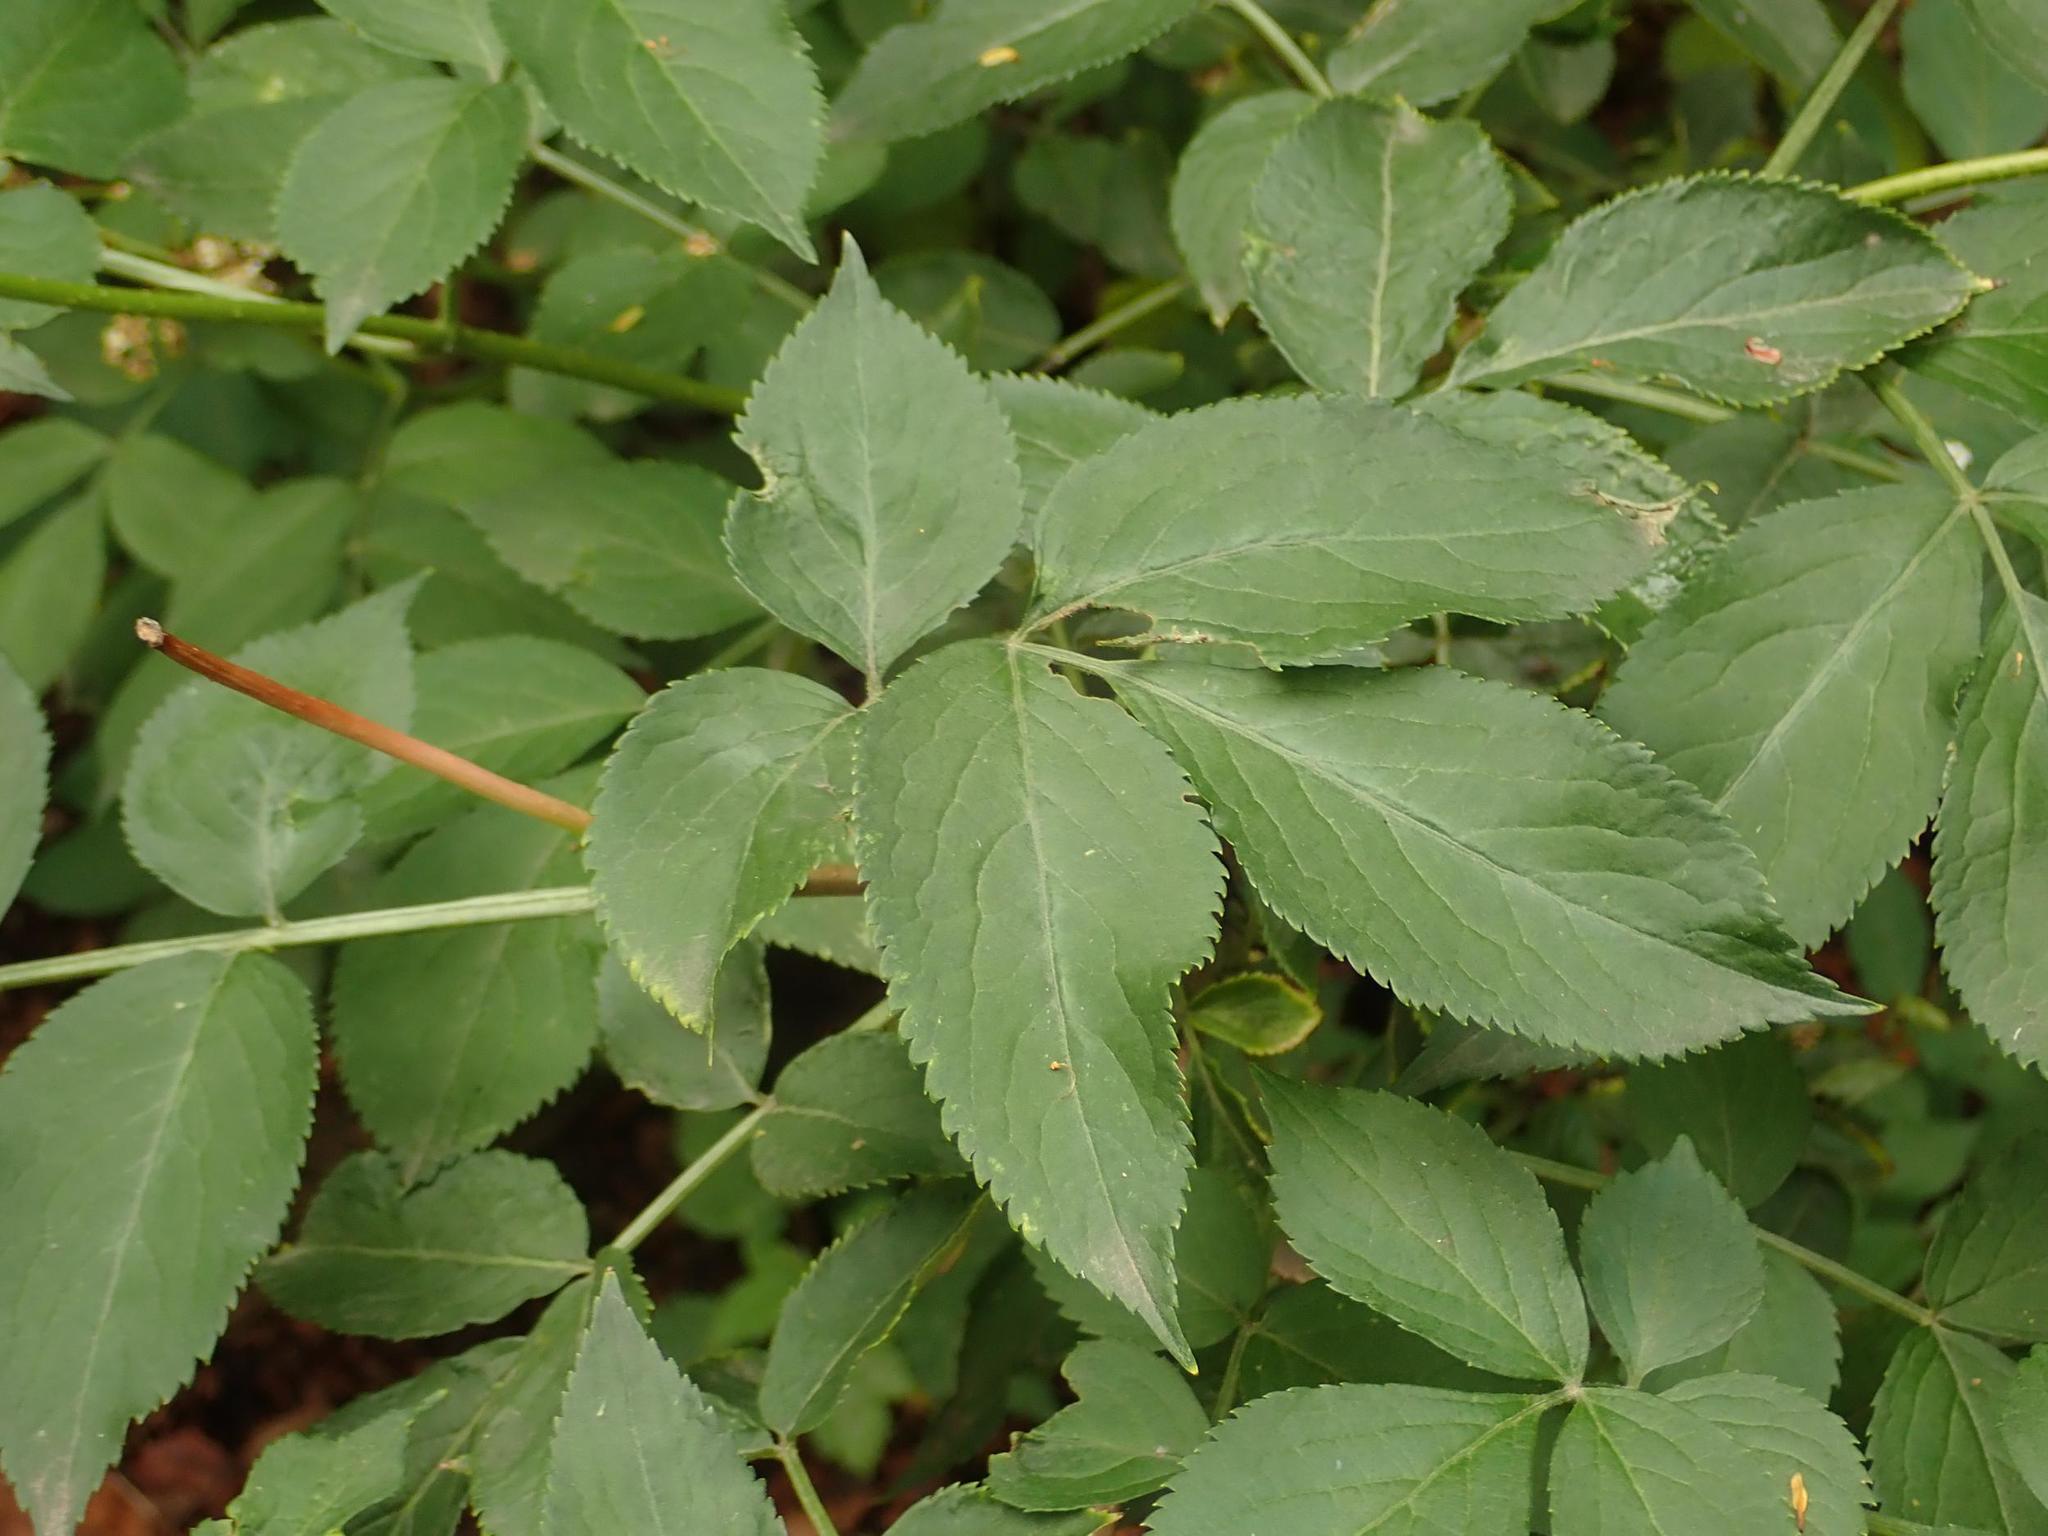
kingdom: Plantae
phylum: Tracheophyta
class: Magnoliopsida
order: Dipsacales
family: Viburnaceae
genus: Sambucus
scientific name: Sambucus nigra
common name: Elder
